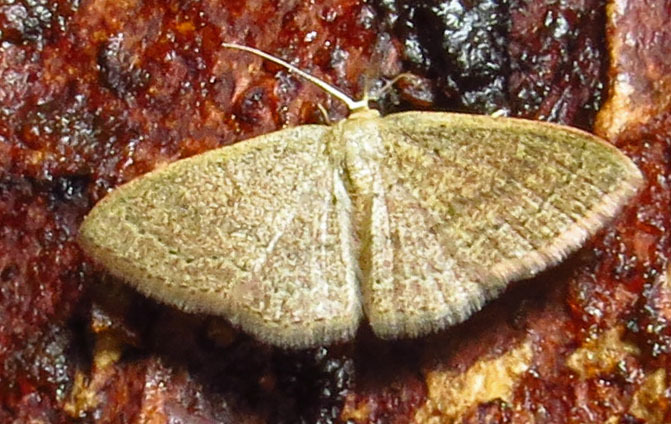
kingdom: Animalia
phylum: Arthropoda
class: Insecta
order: Lepidoptera
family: Geometridae
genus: Pleuroprucha
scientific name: Pleuroprucha insulsaria
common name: Common tan wave
